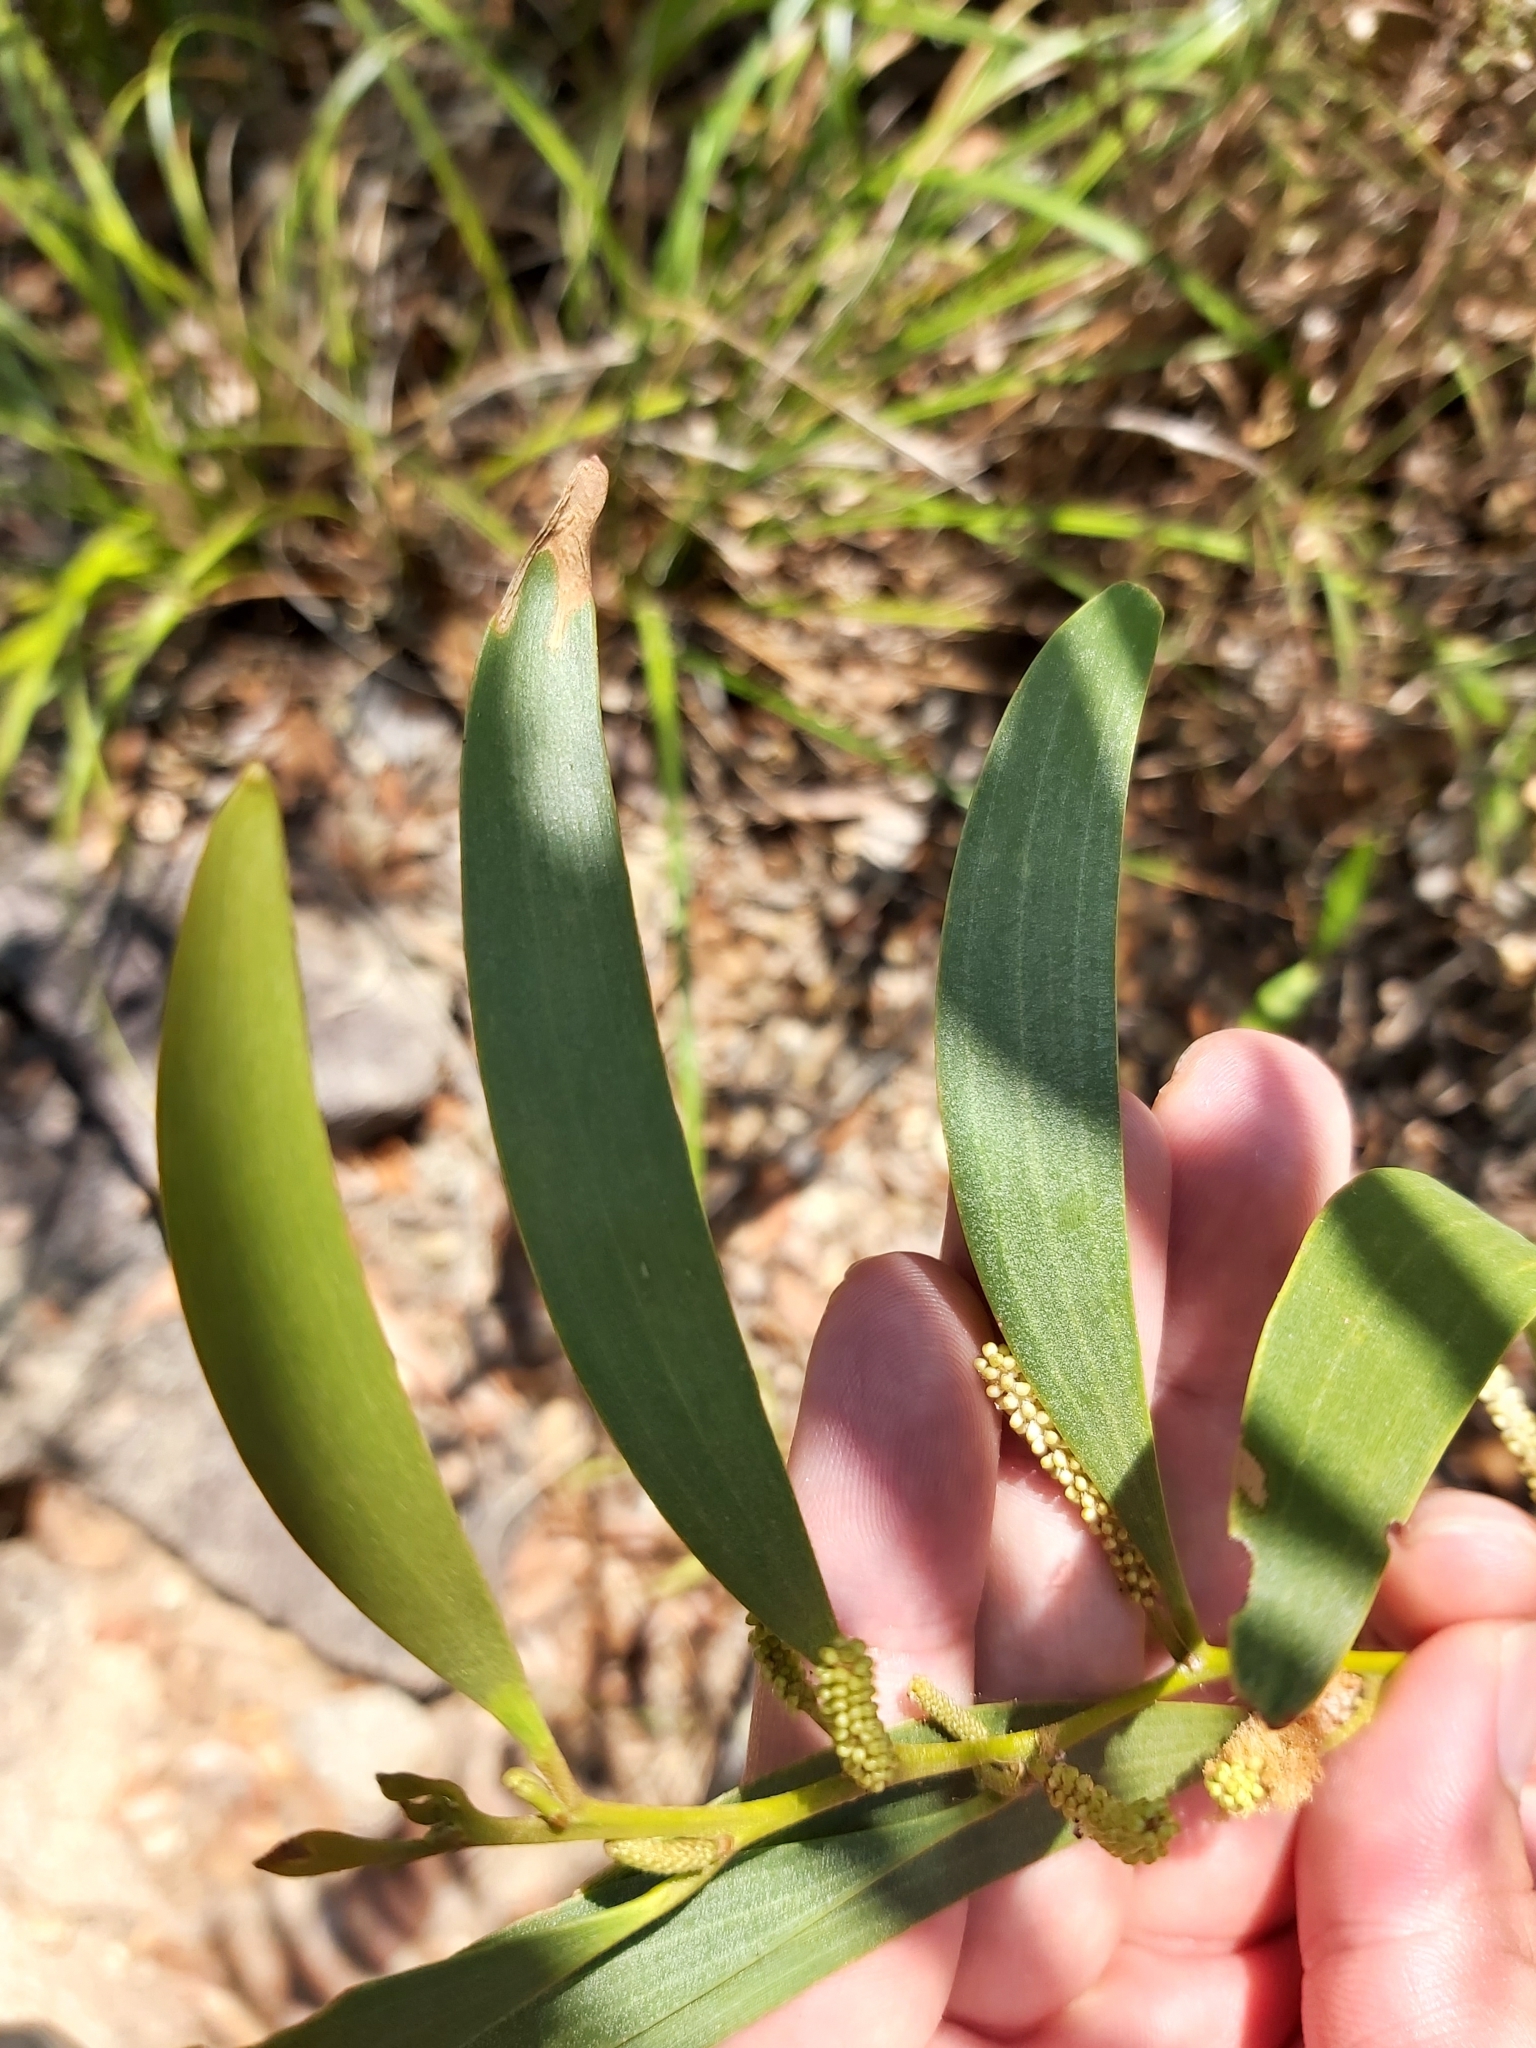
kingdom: Plantae
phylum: Tracheophyta
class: Magnoliopsida
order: Fabales
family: Fabaceae
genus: Acacia
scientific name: Acacia calyculata
